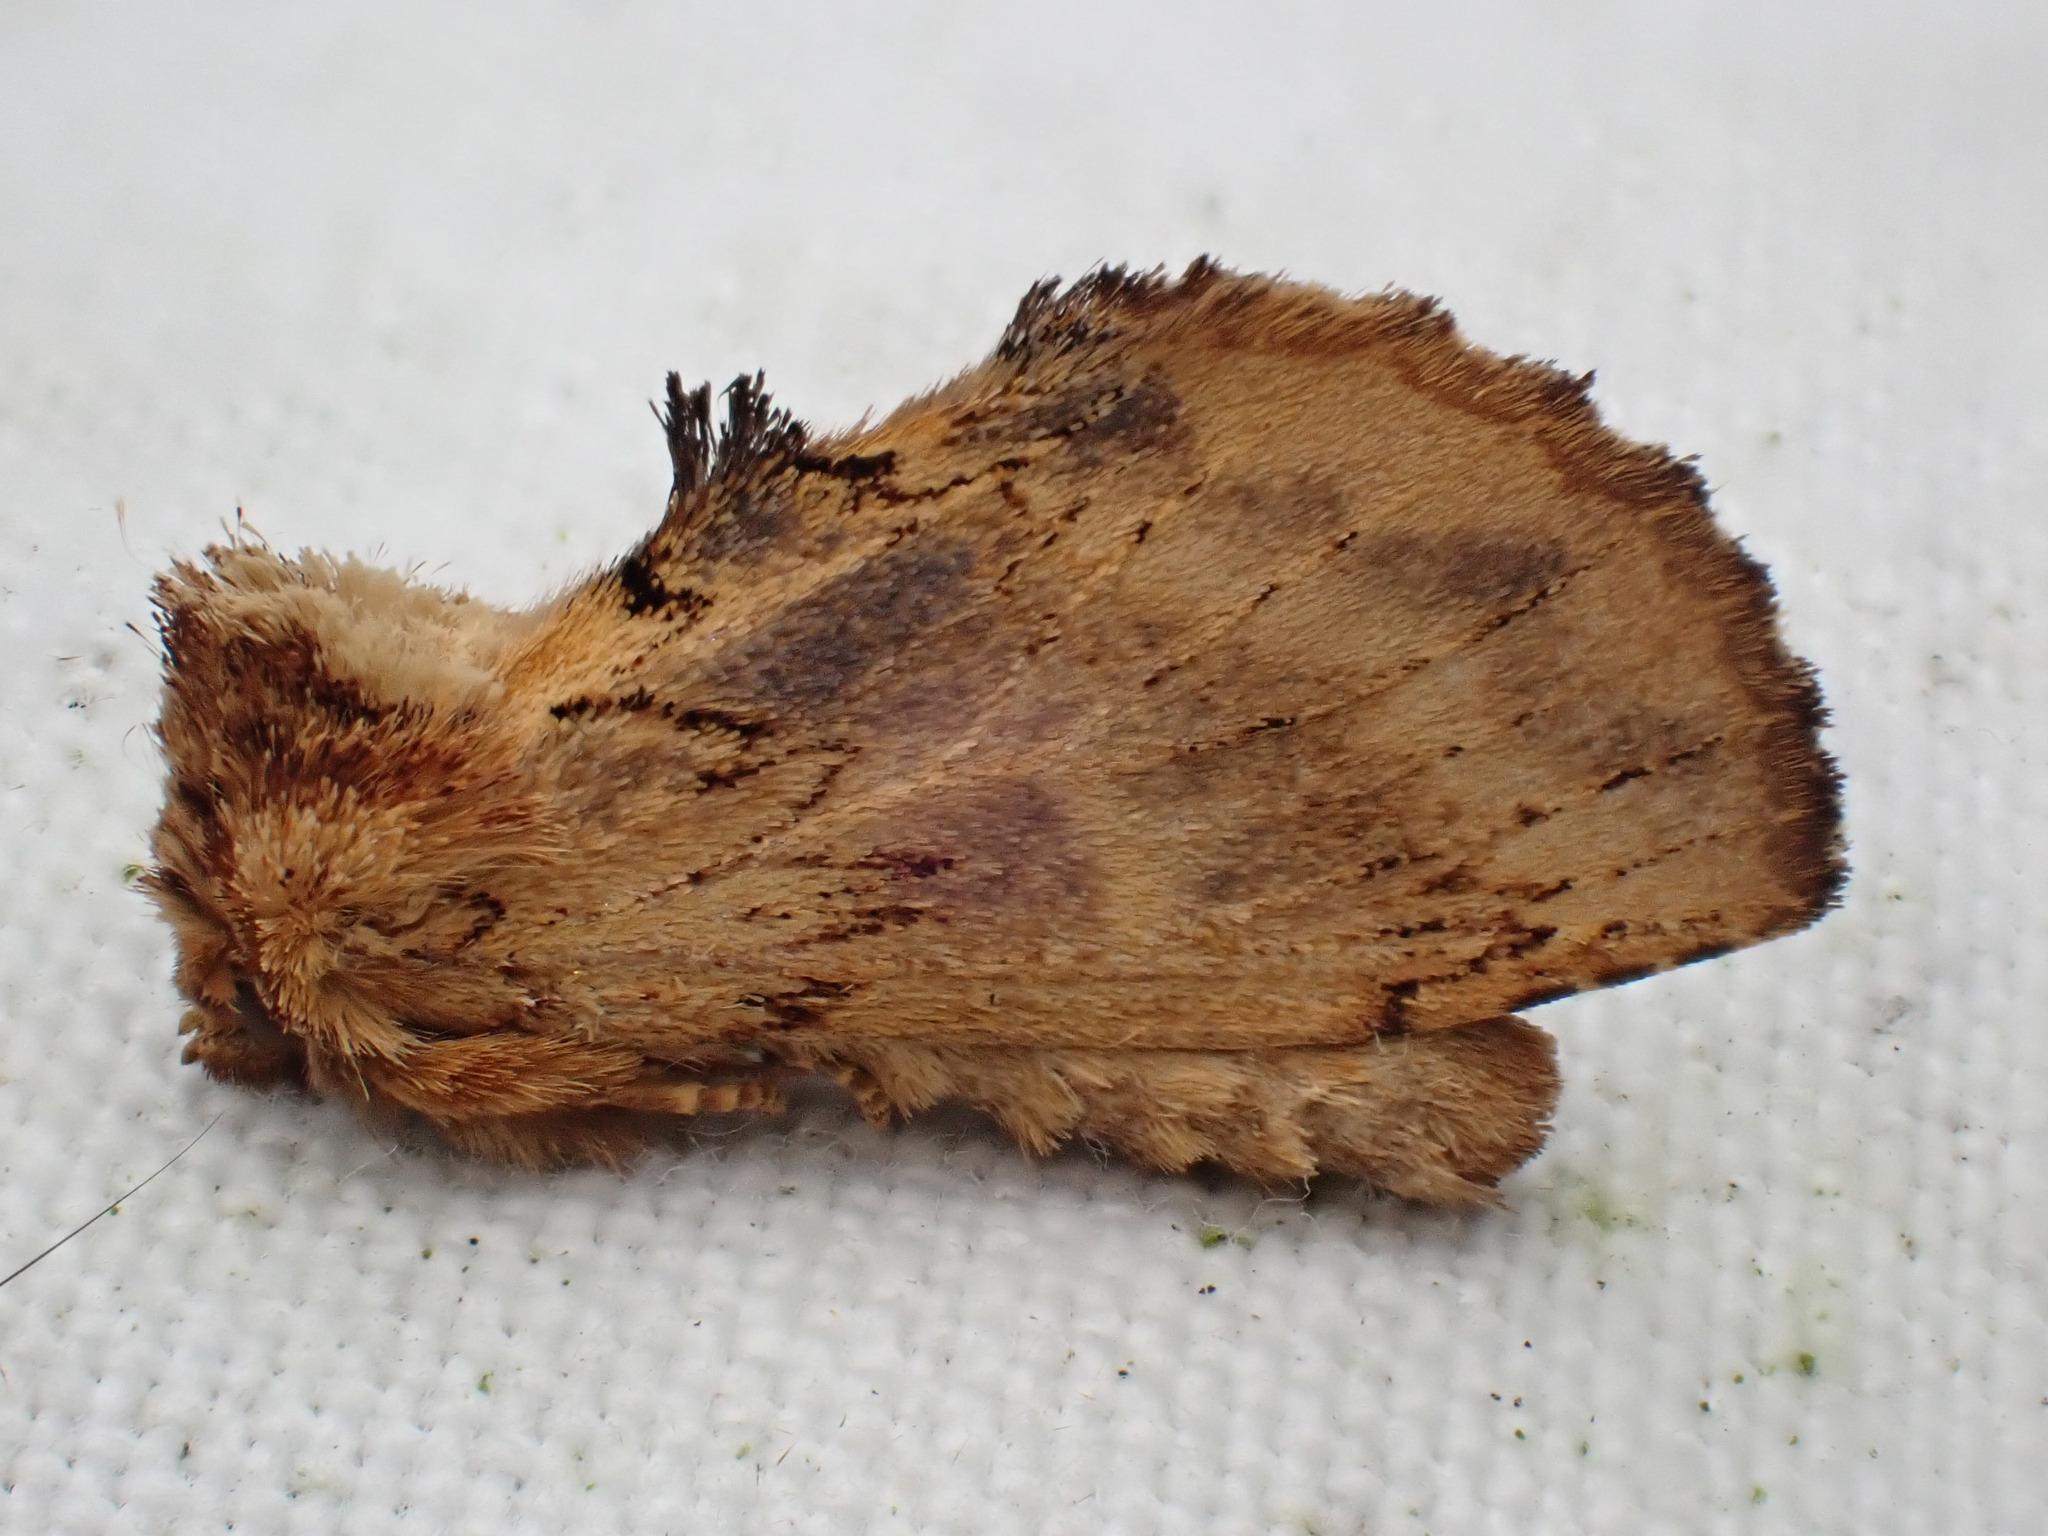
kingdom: Animalia
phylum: Arthropoda
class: Insecta
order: Lepidoptera
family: Notodontidae
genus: Ptilodon
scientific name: Ptilodon capucina
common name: Coxcomb prominent
